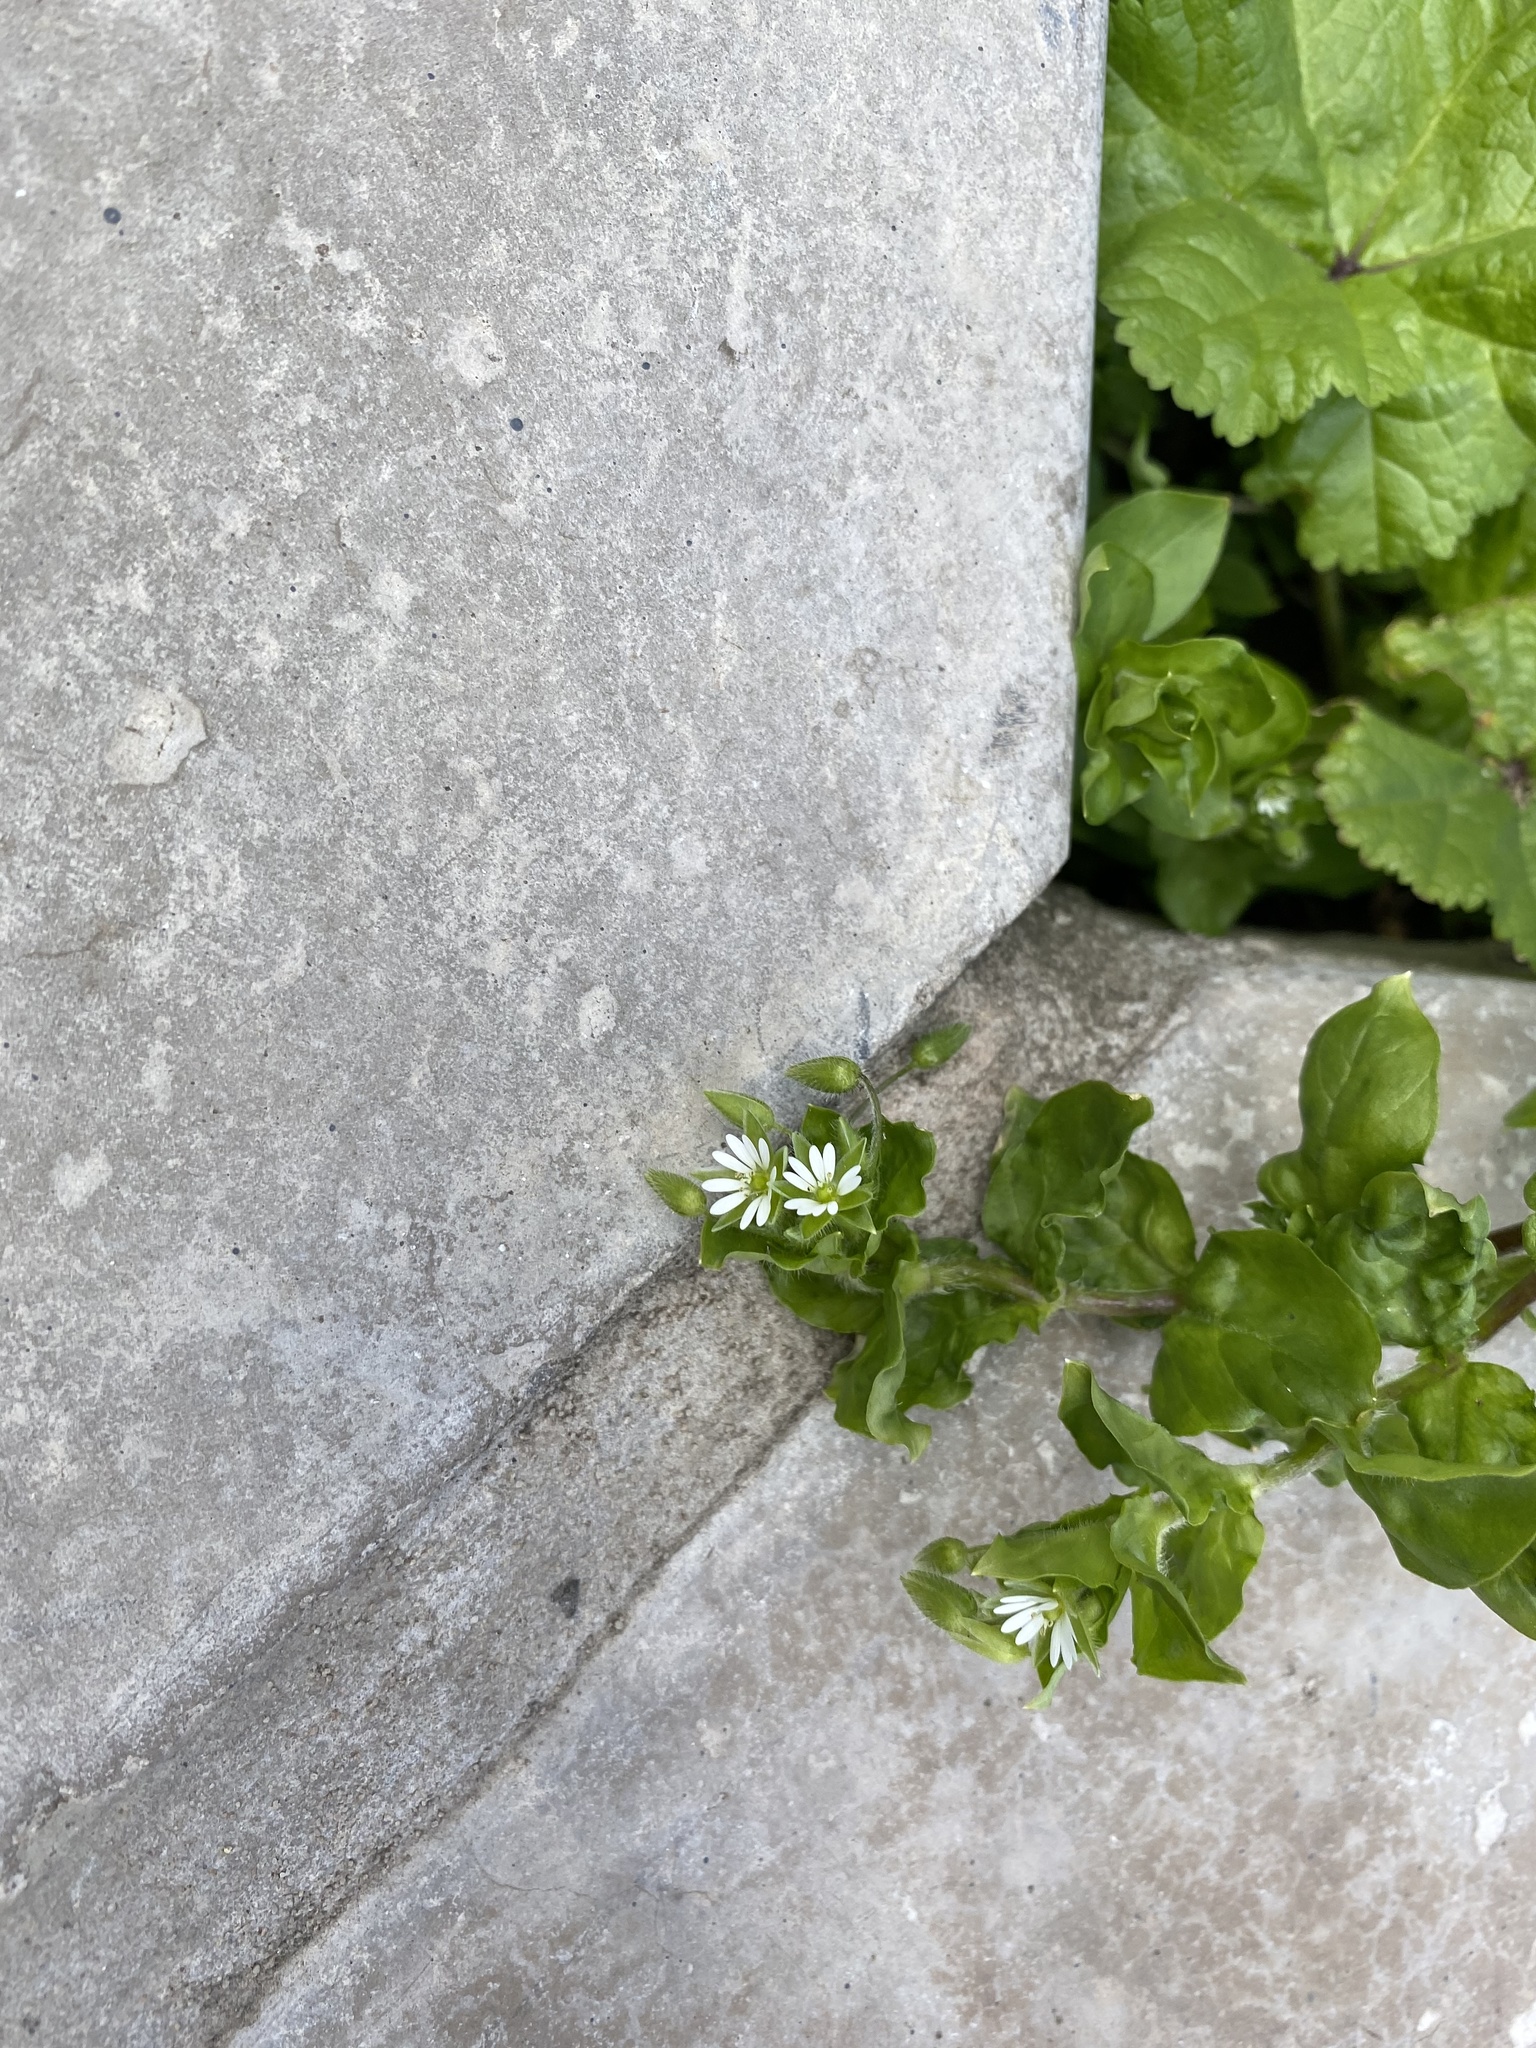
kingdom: Plantae
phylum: Tracheophyta
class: Magnoliopsida
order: Caryophyllales
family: Caryophyllaceae
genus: Stellaria
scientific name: Stellaria media
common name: Common chickweed
